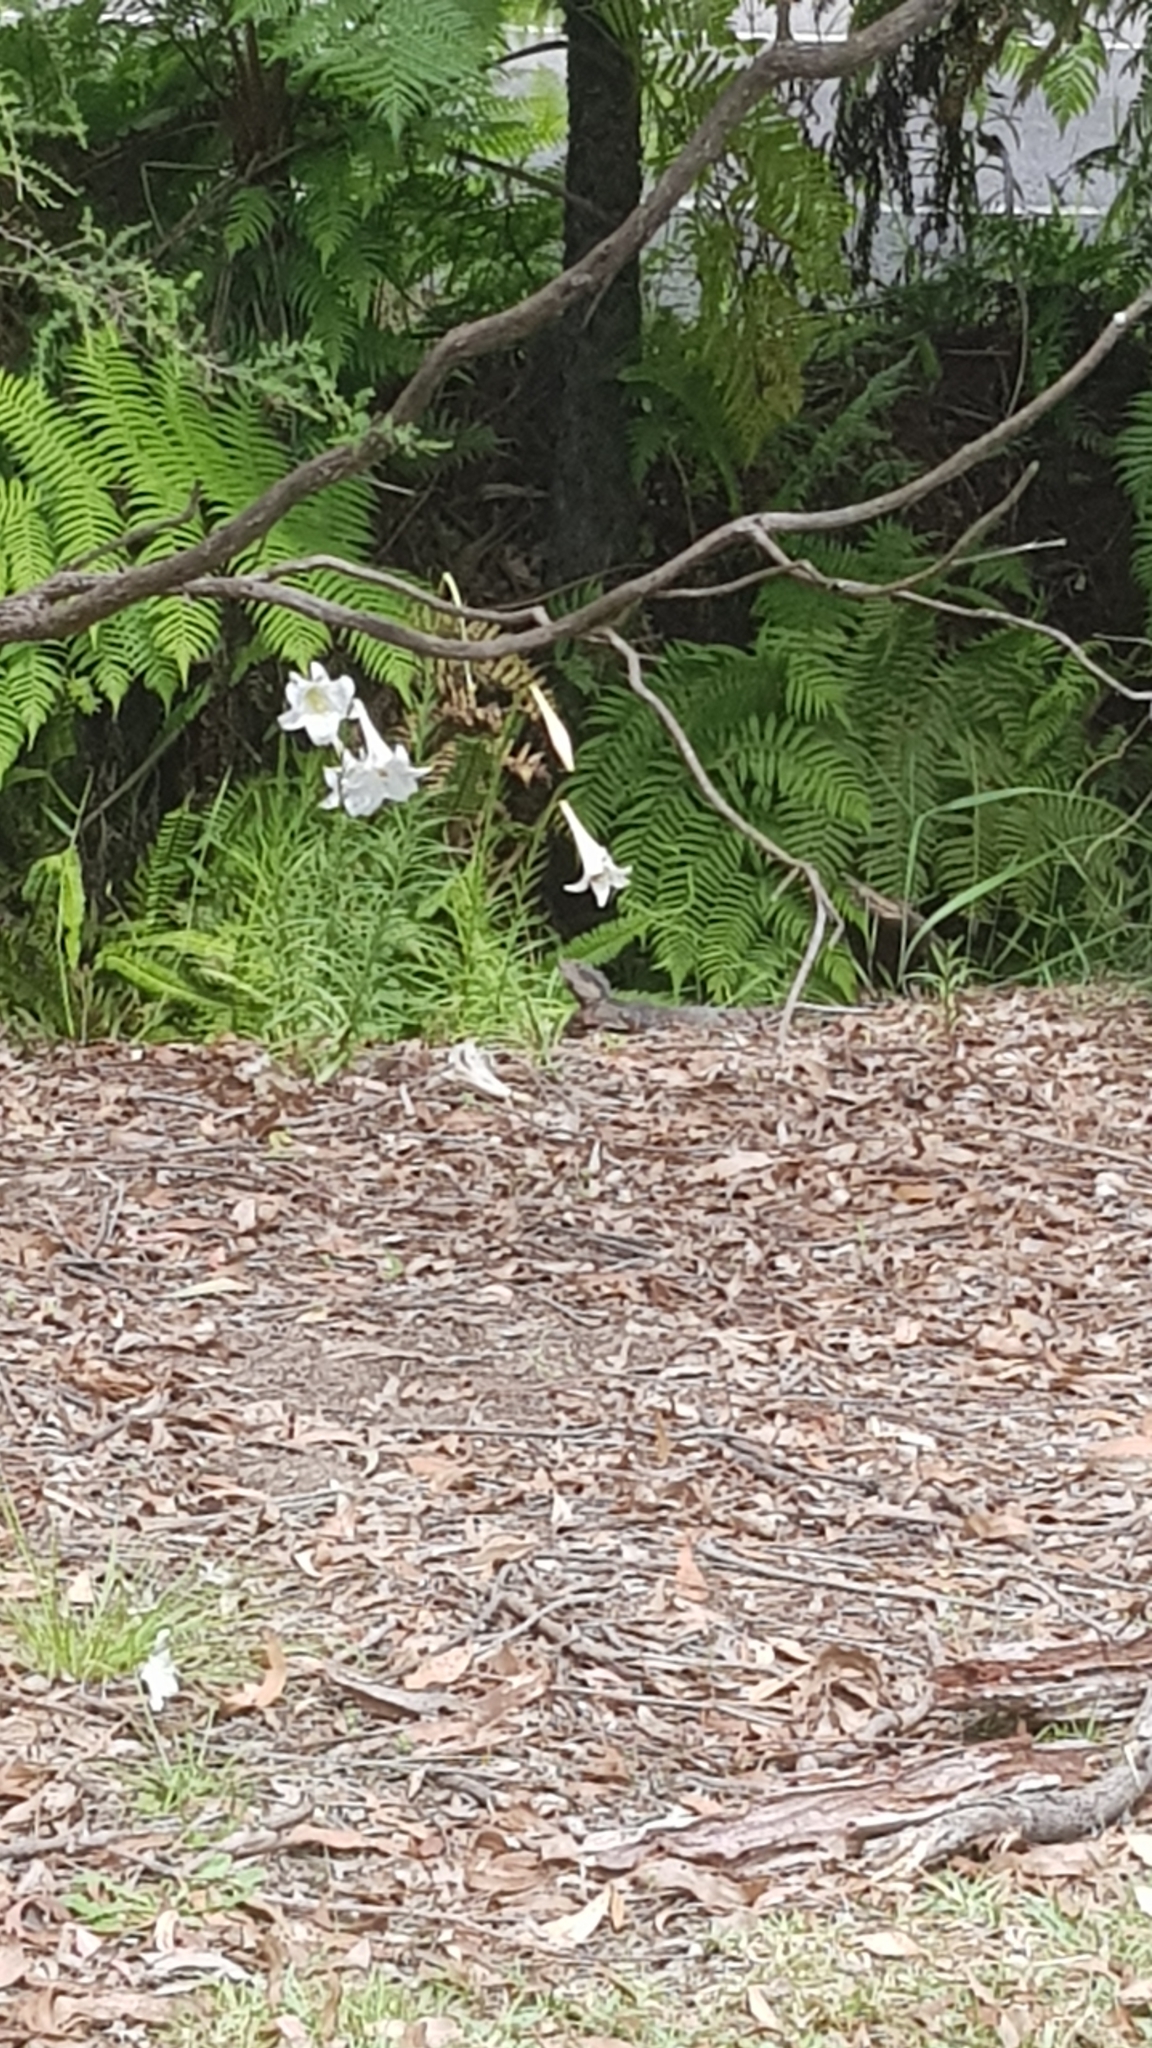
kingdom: Animalia
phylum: Chordata
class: Squamata
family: Agamidae
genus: Intellagama
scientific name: Intellagama lesueurii
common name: Eastern water dragon
